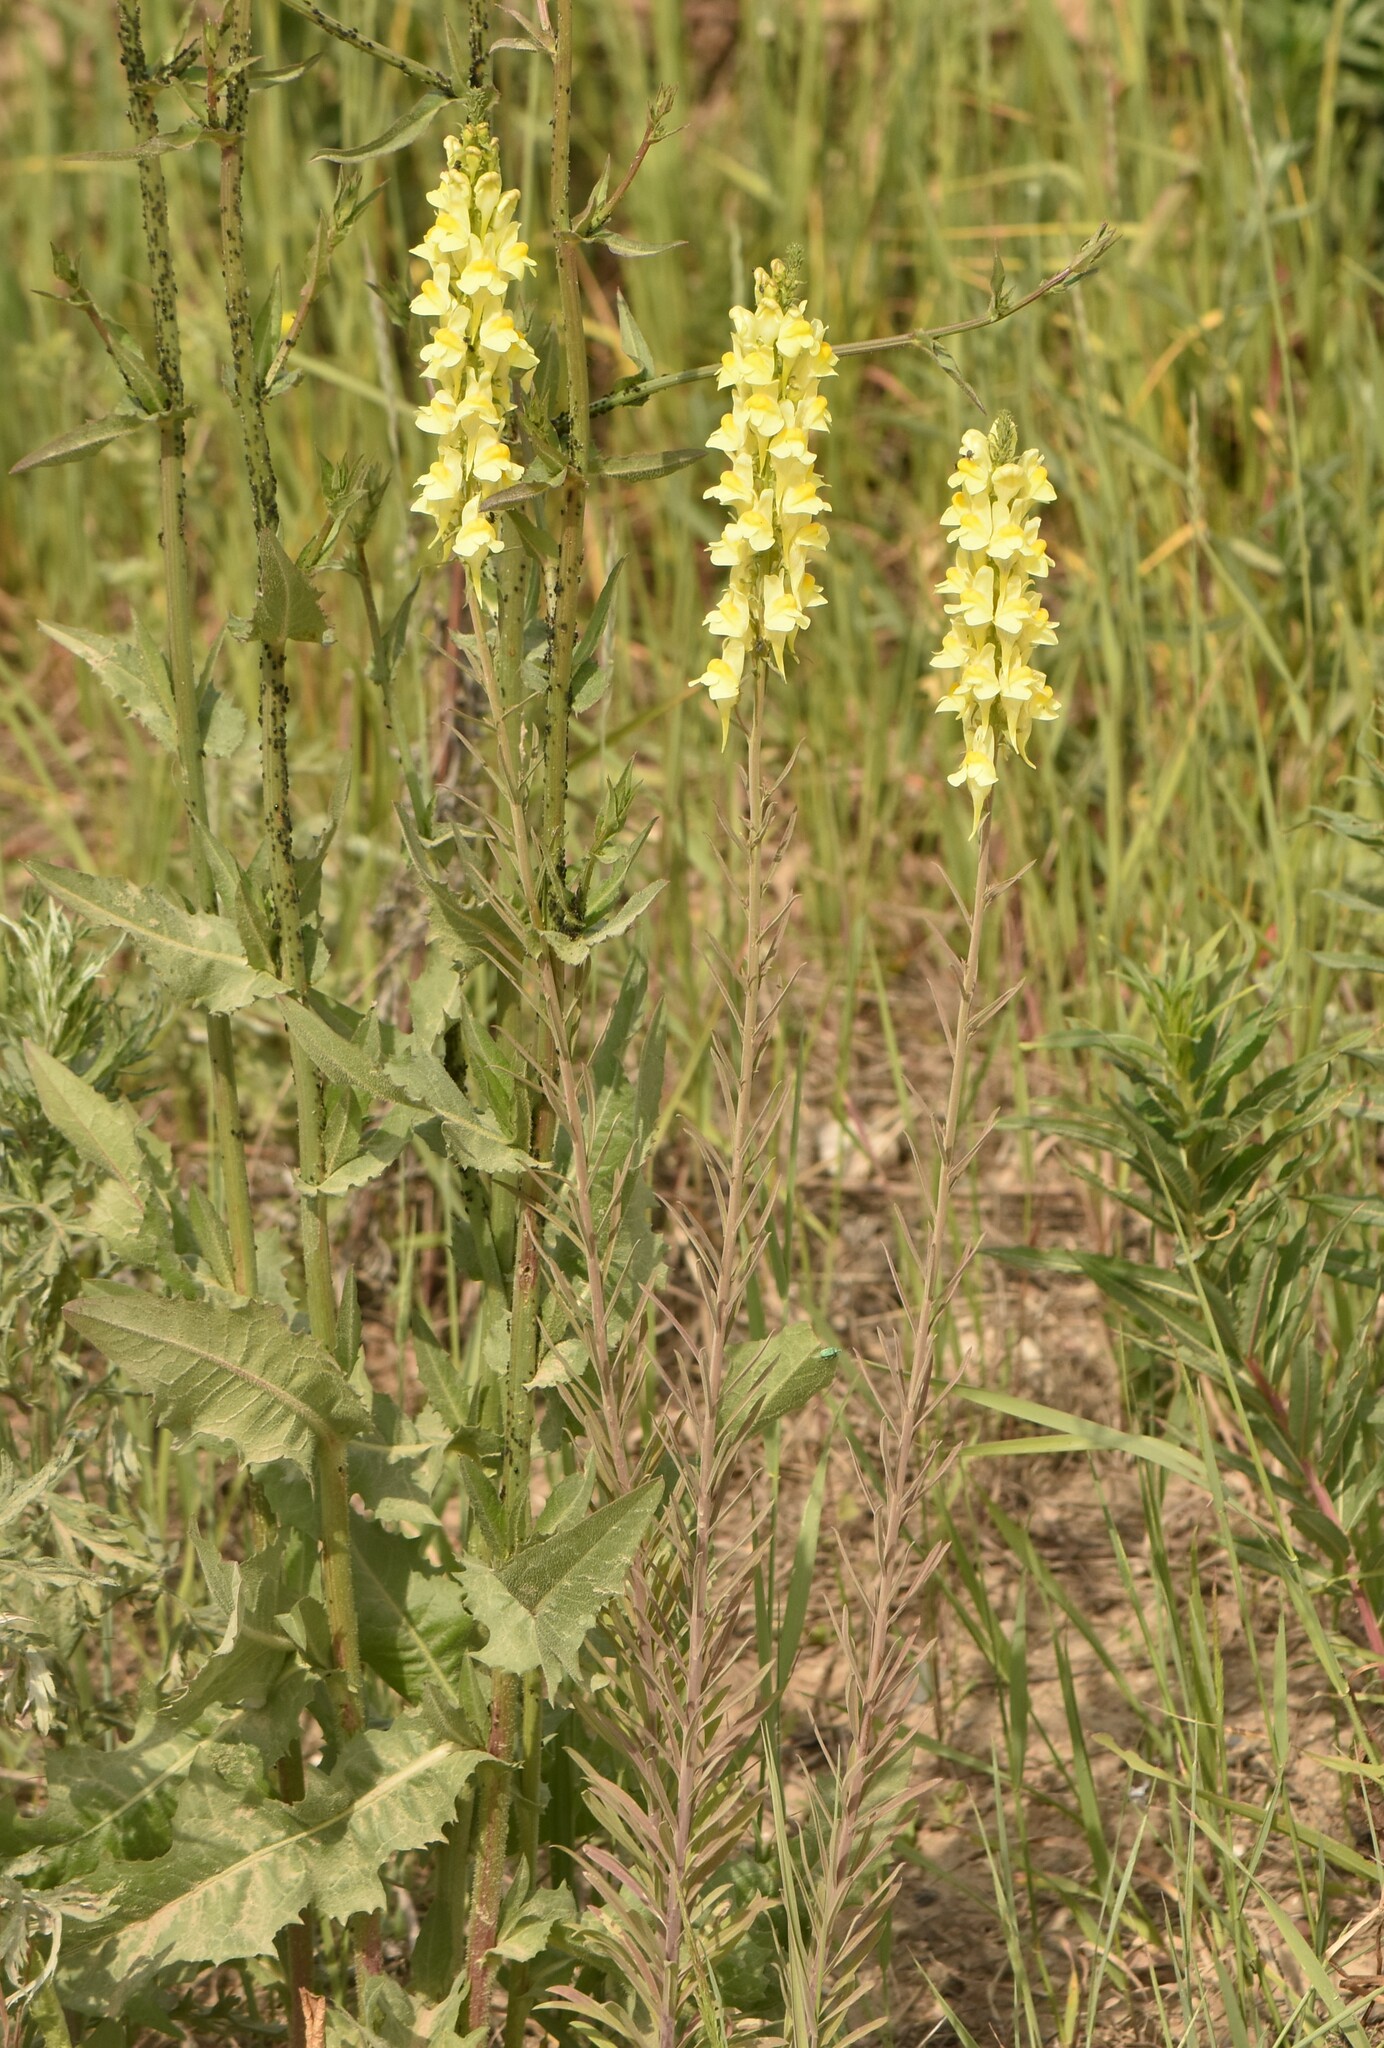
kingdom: Plantae
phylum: Tracheophyta
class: Magnoliopsida
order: Lamiales
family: Plantaginaceae
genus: Linaria
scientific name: Linaria vulgaris
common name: Butter and eggs
